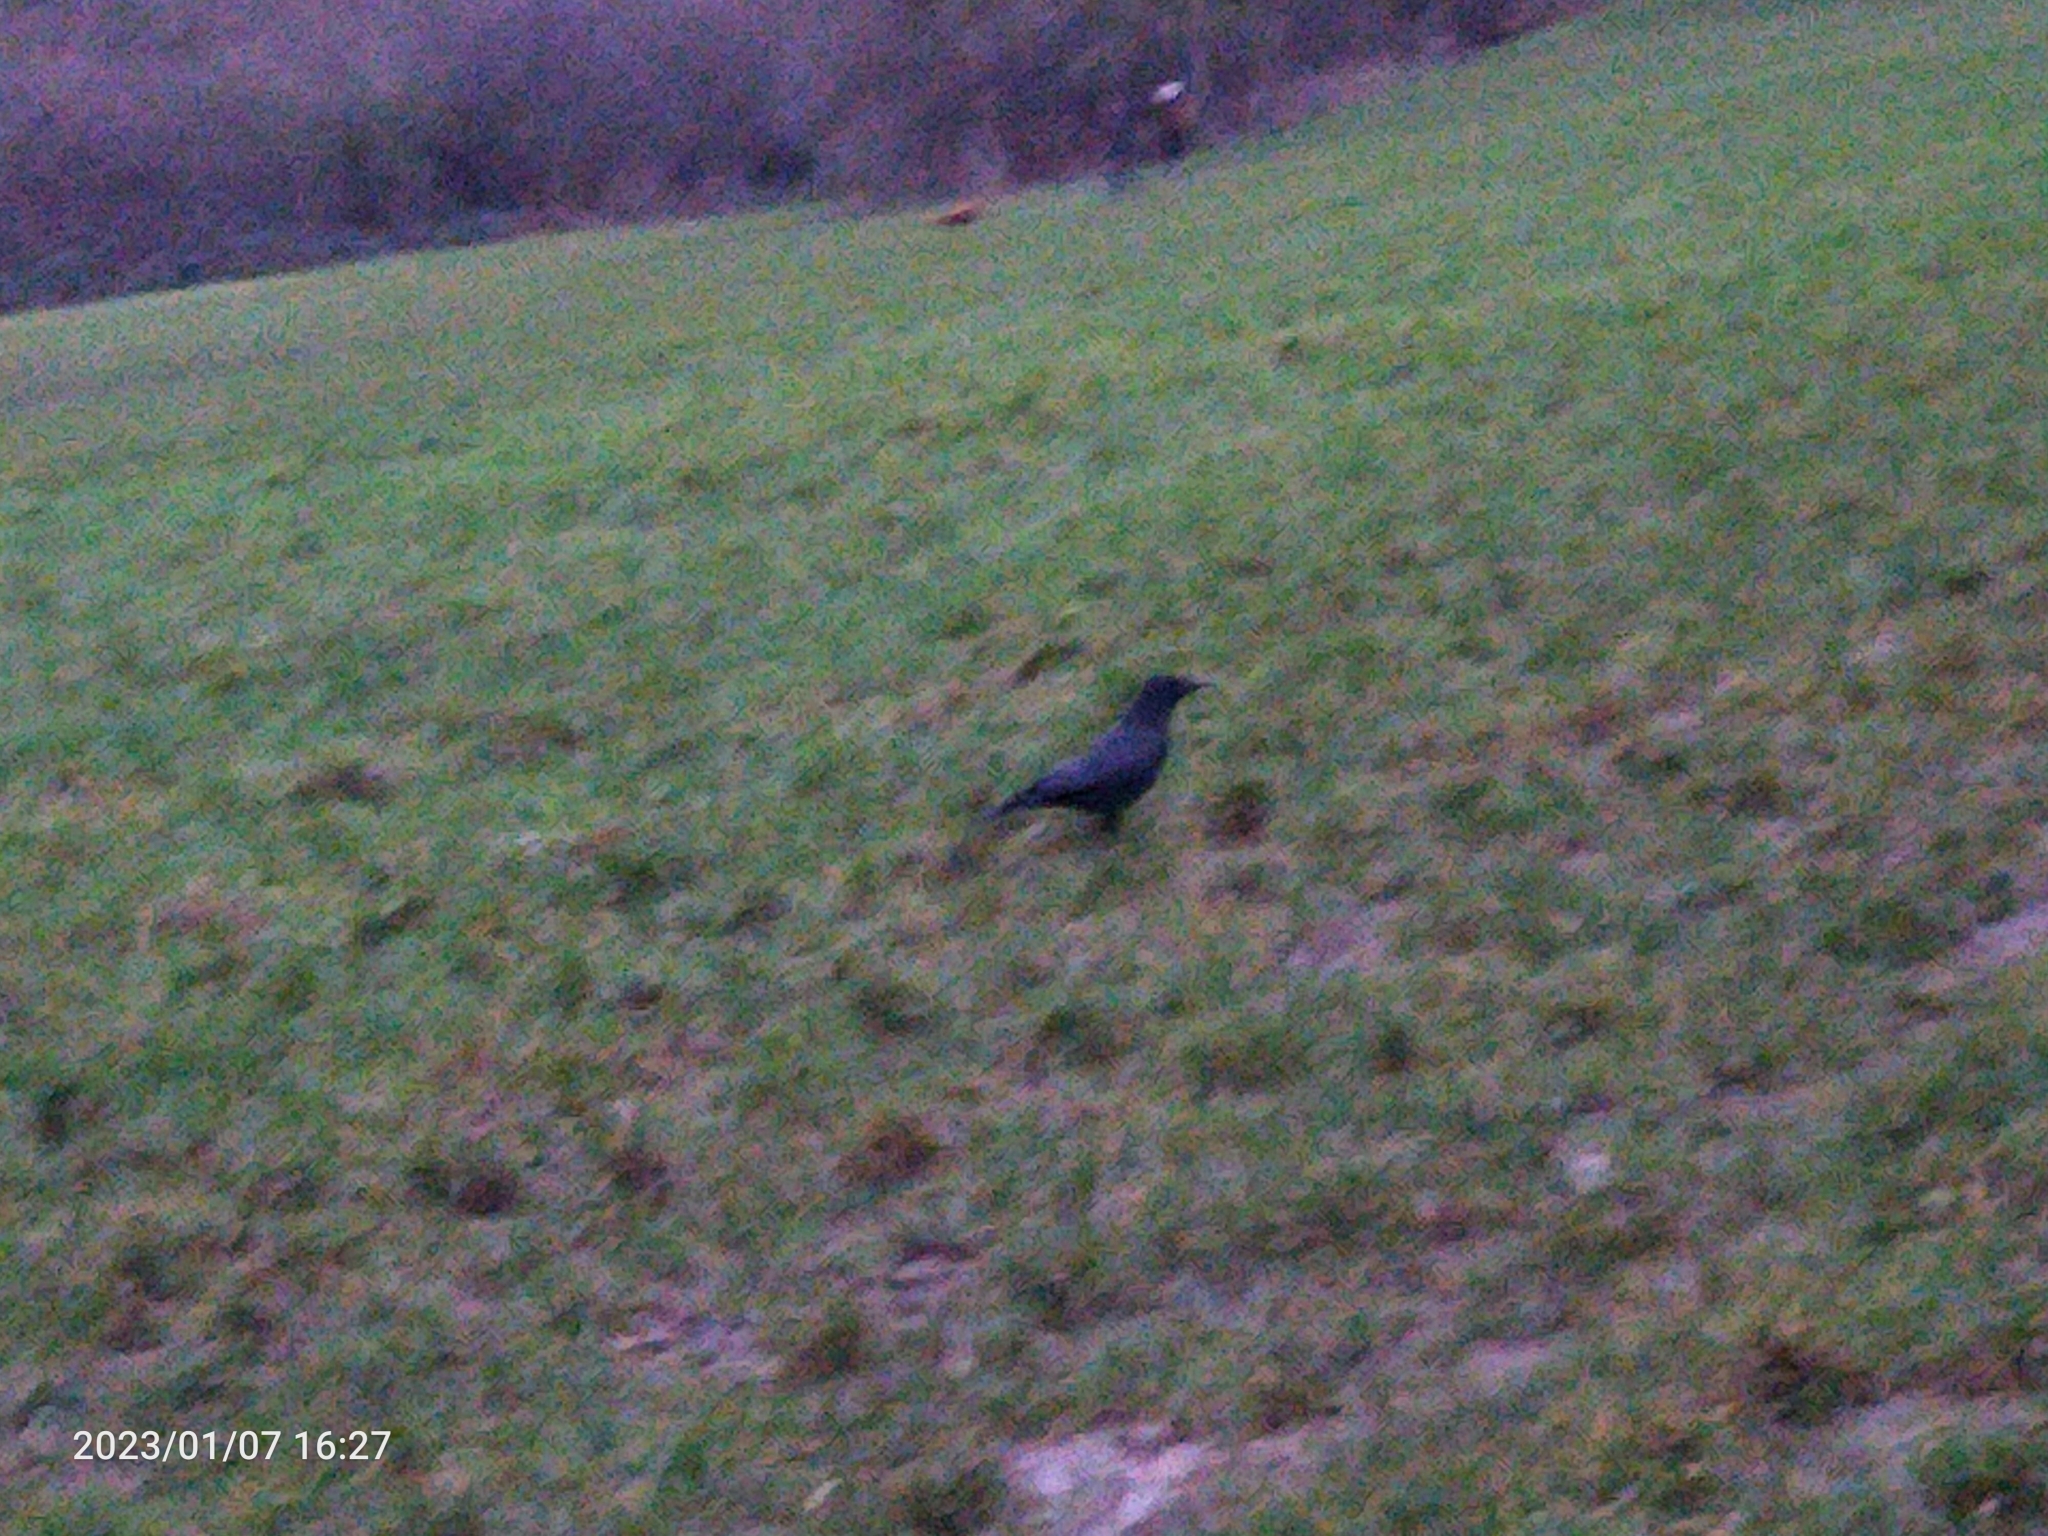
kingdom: Animalia
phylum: Chordata
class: Aves
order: Passeriformes
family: Corvidae
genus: Corvus
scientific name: Corvus corone
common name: Carrion crow
